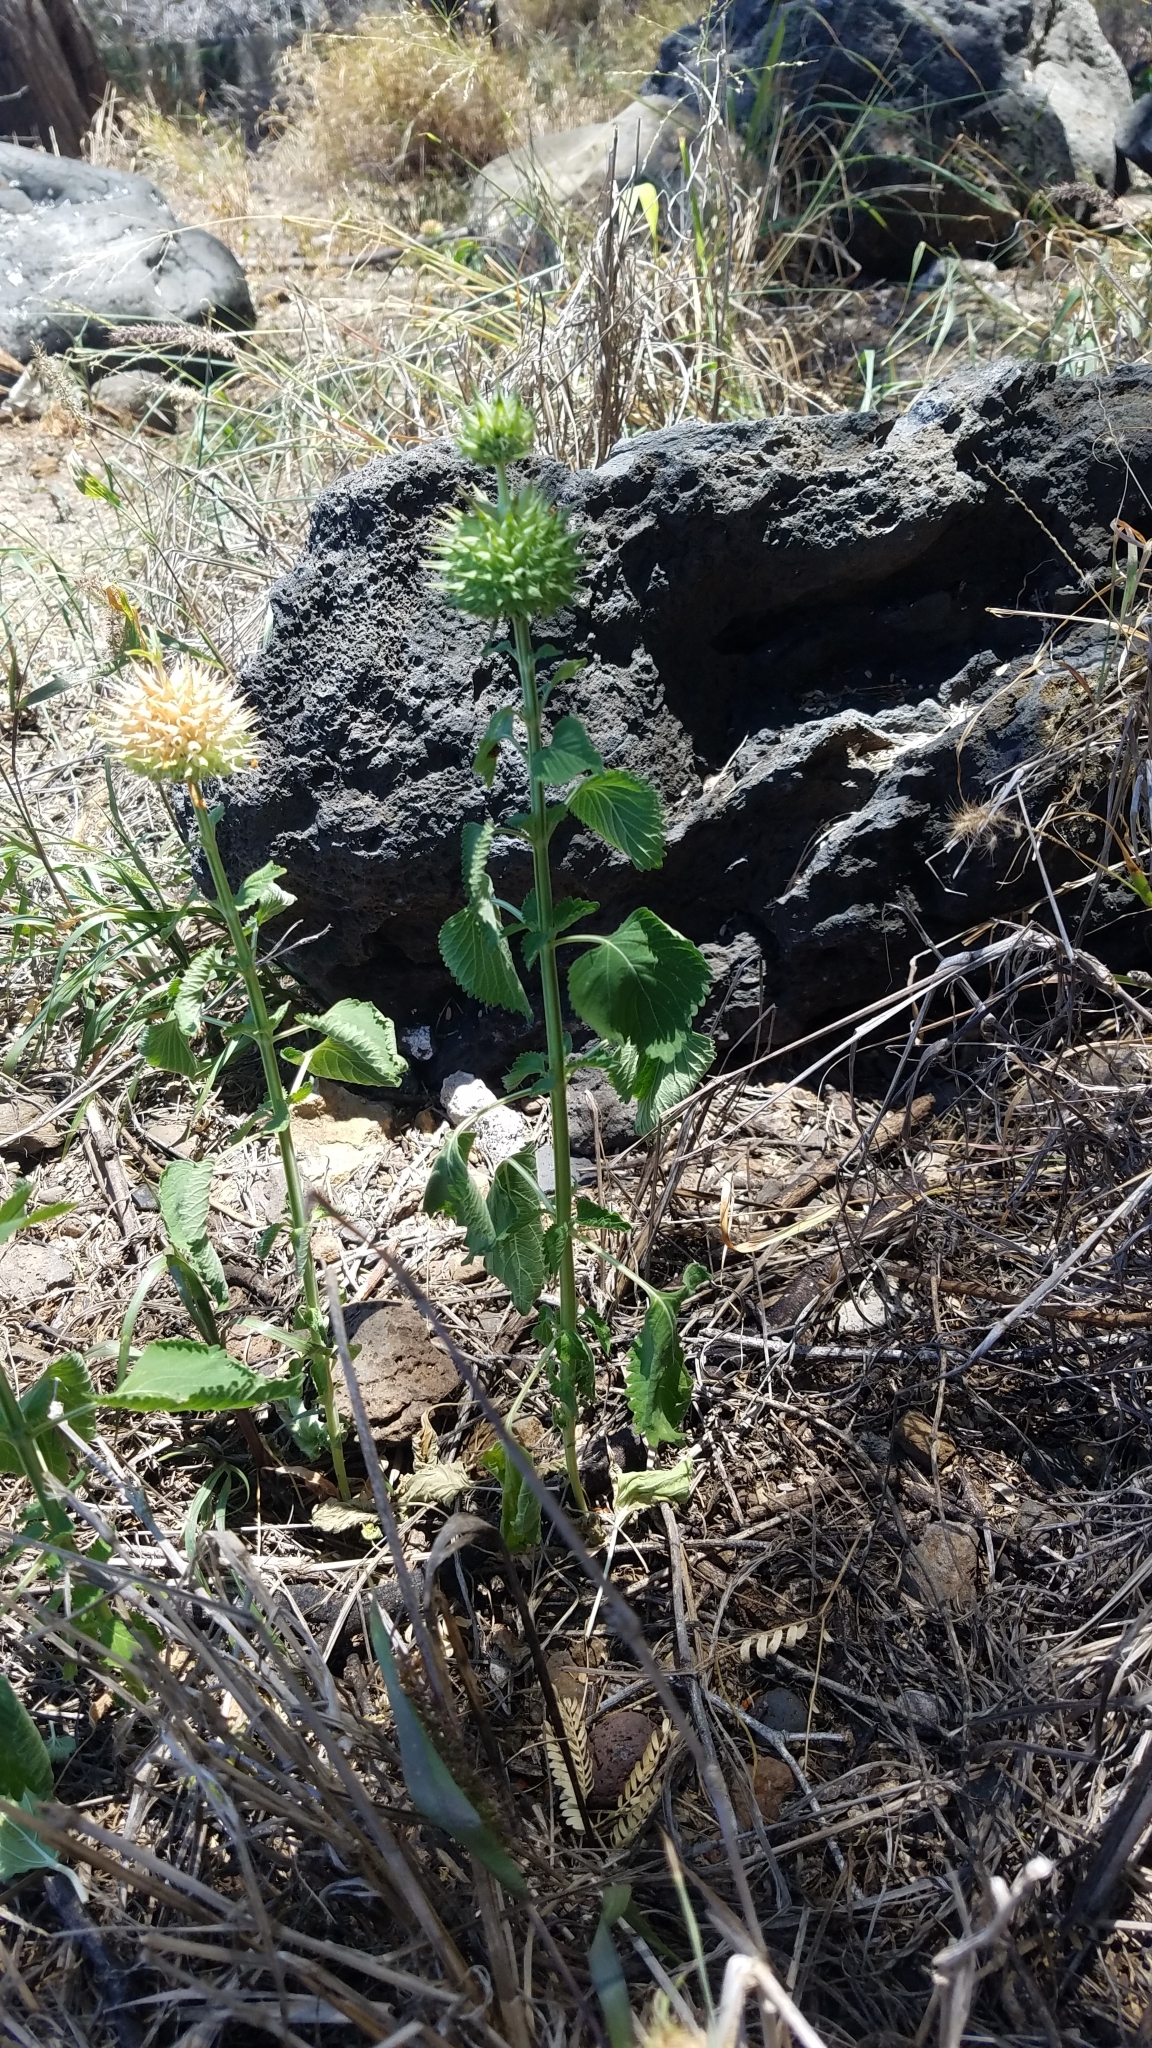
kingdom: Plantae
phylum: Tracheophyta
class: Magnoliopsida
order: Lamiales
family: Lamiaceae
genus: Leonotis
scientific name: Leonotis nepetifolia
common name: Christmas candlestick
